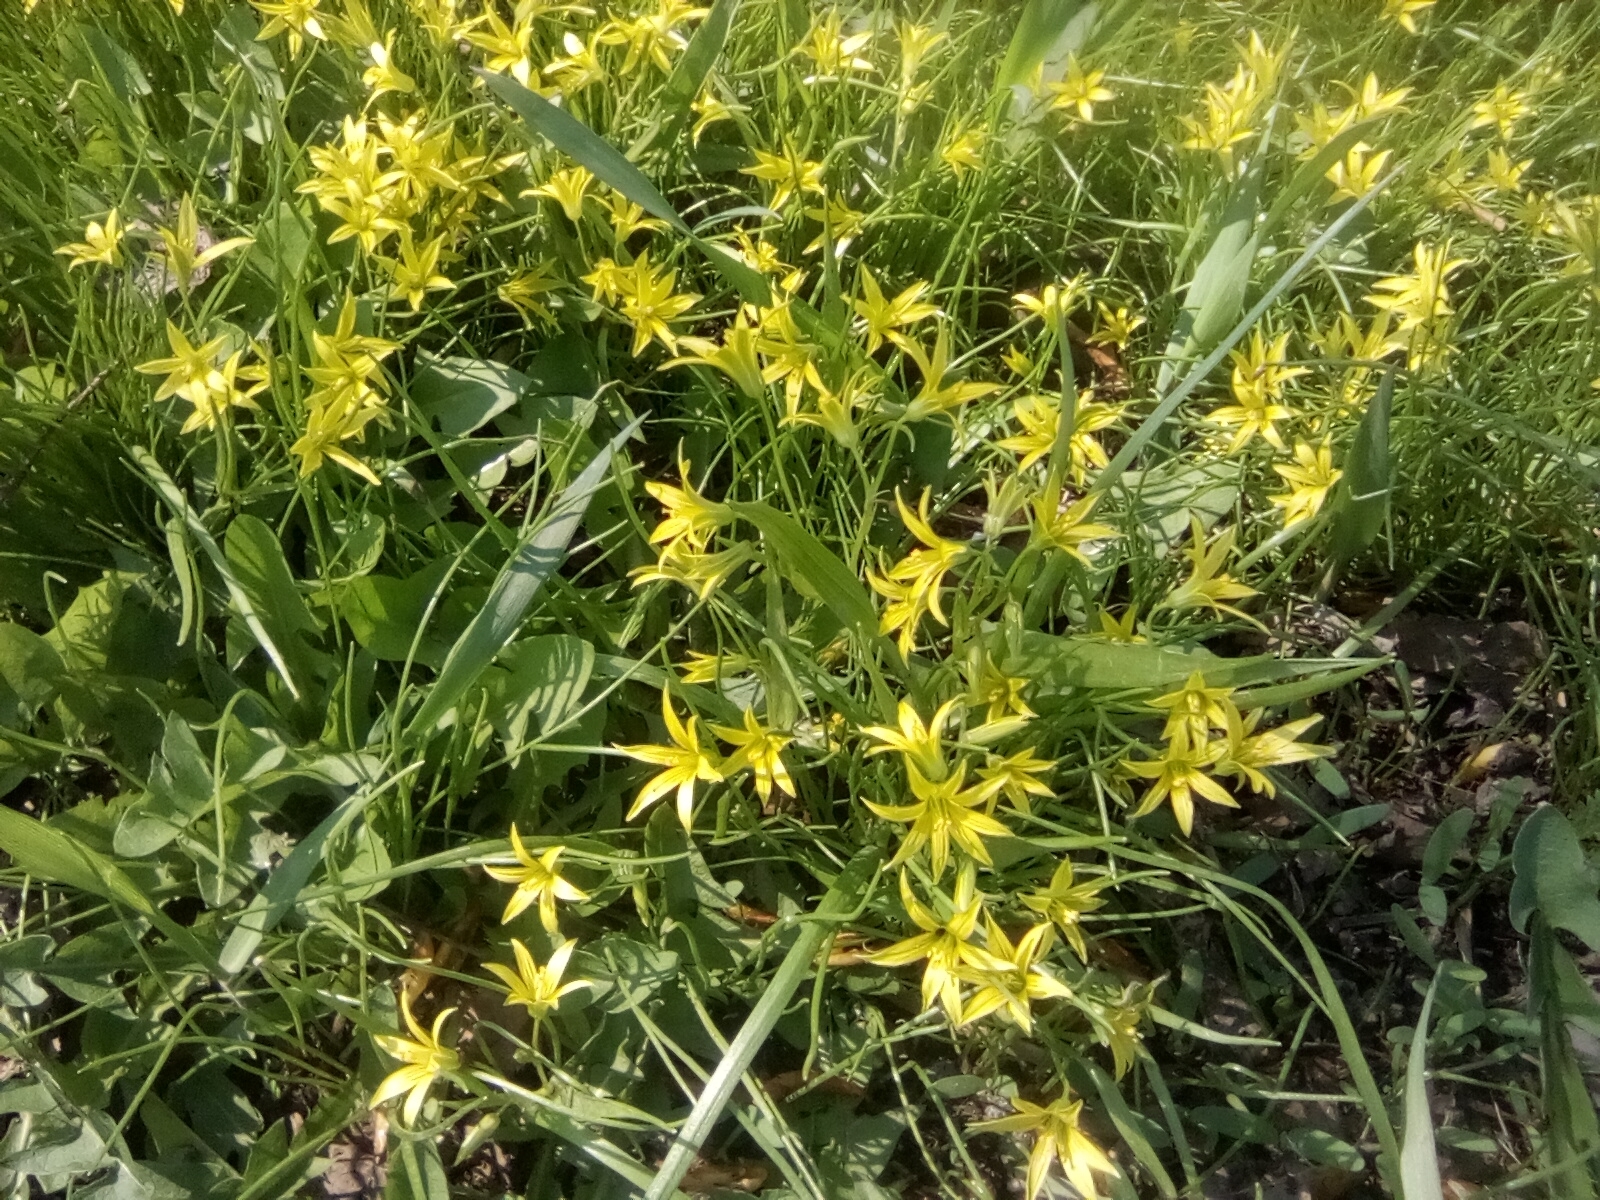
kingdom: Plantae
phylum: Tracheophyta
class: Liliopsida
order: Liliales
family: Liliaceae
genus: Gagea
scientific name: Gagea minima
